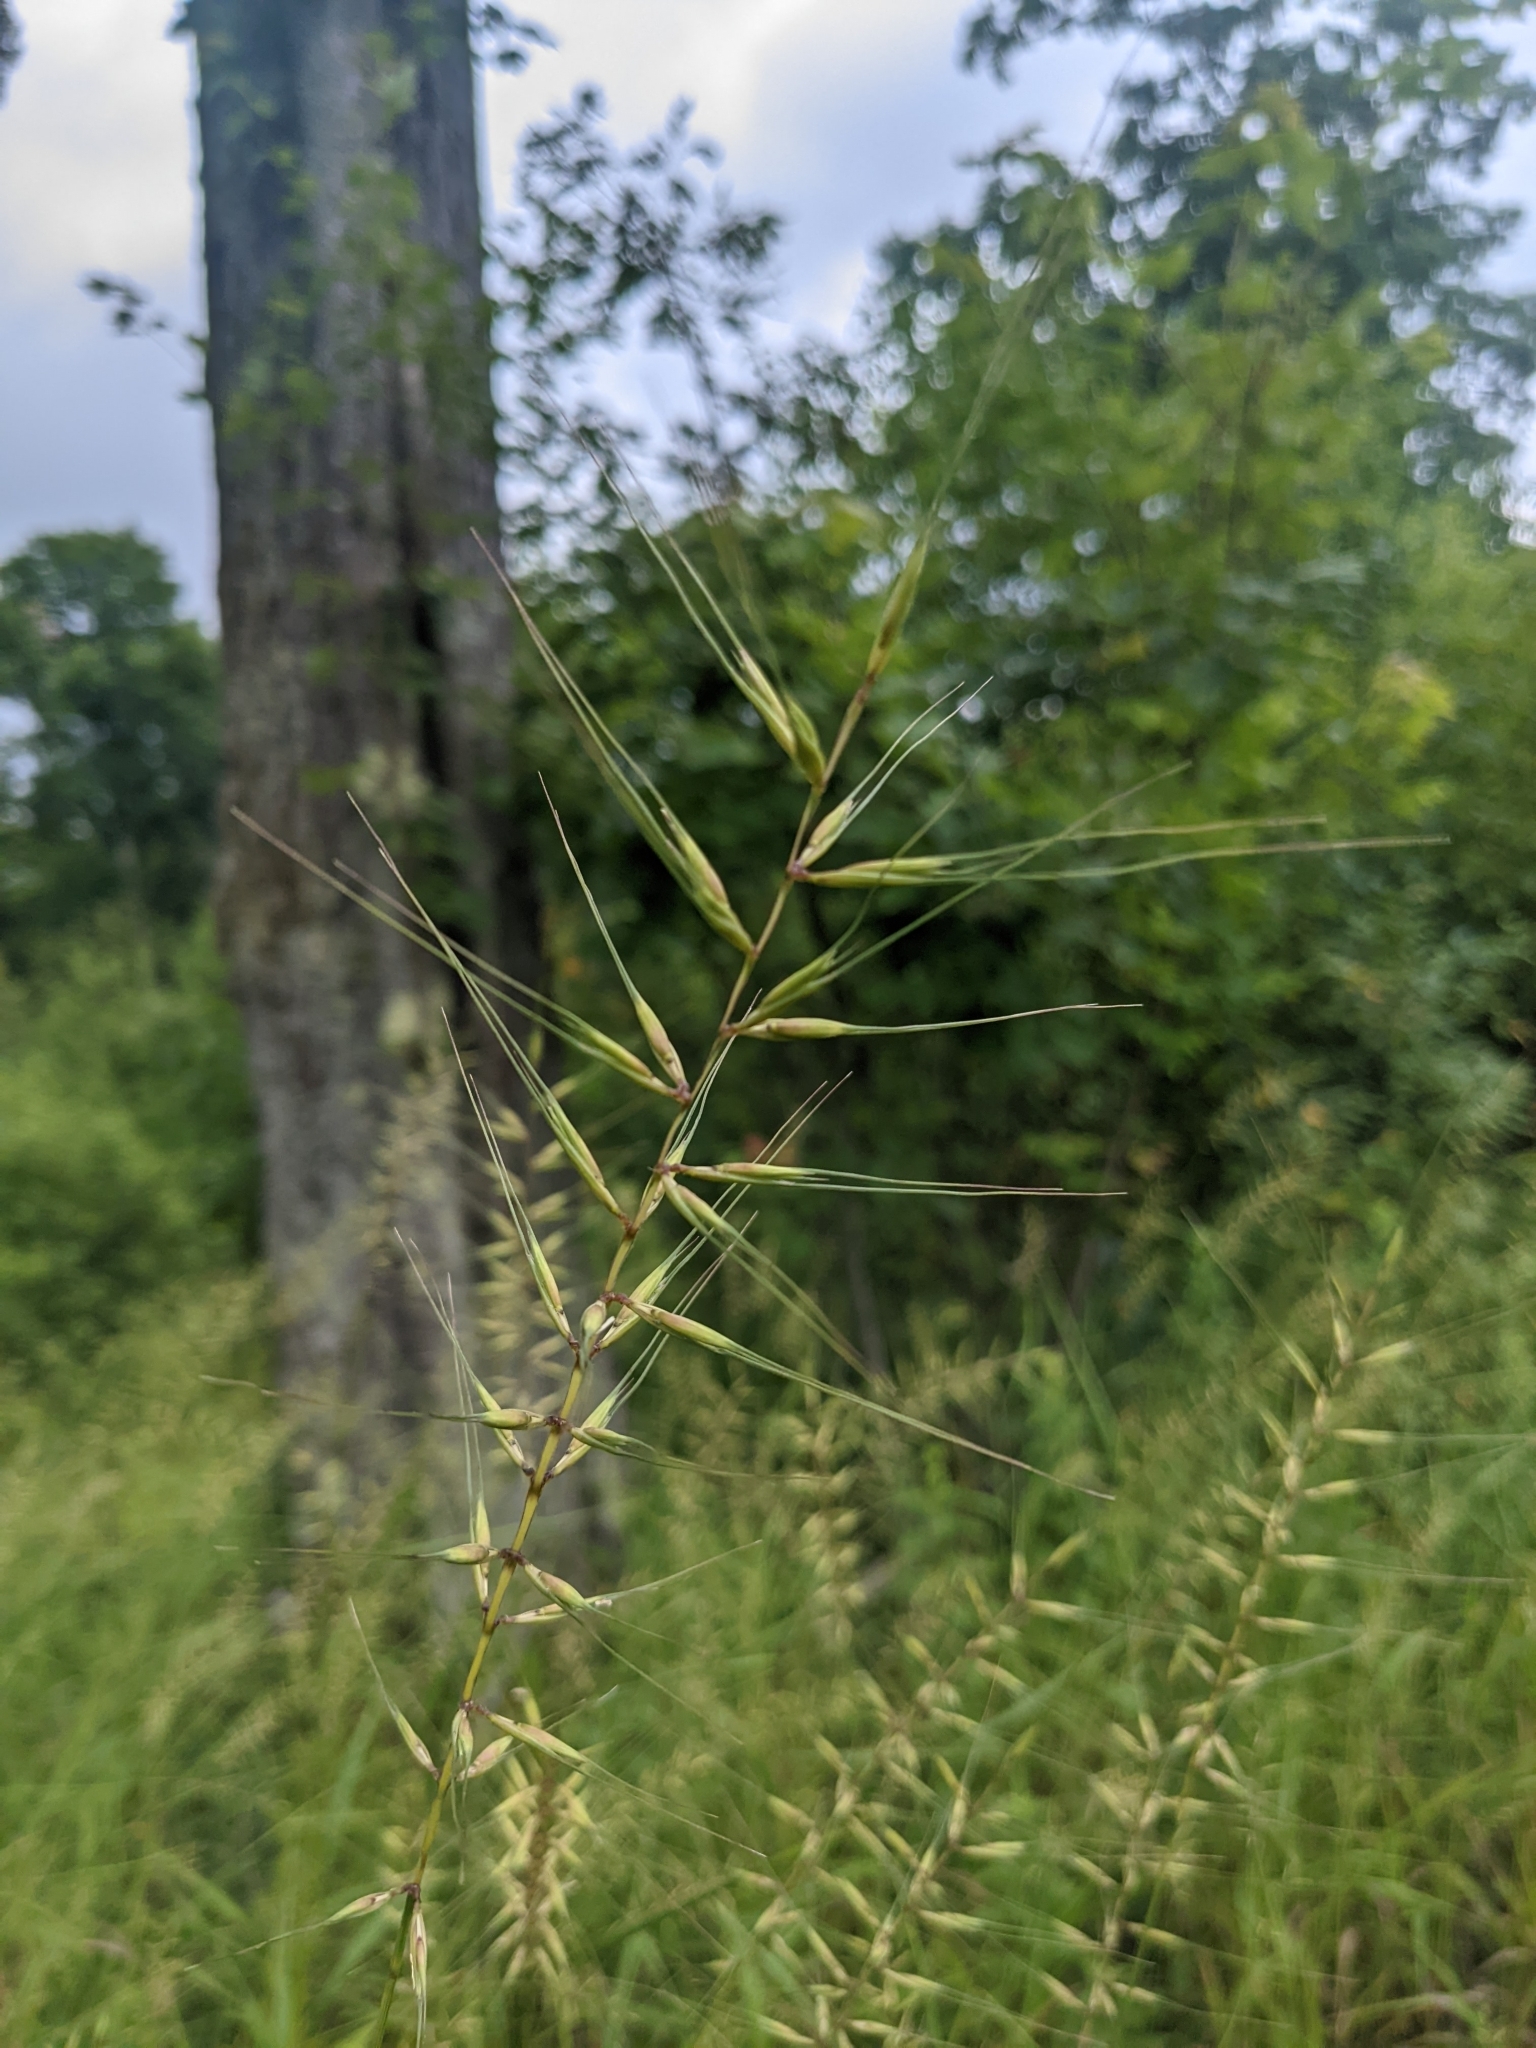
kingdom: Plantae
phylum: Tracheophyta
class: Liliopsida
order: Poales
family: Poaceae
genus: Elymus
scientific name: Elymus hystrix
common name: Bottlebrush grass
